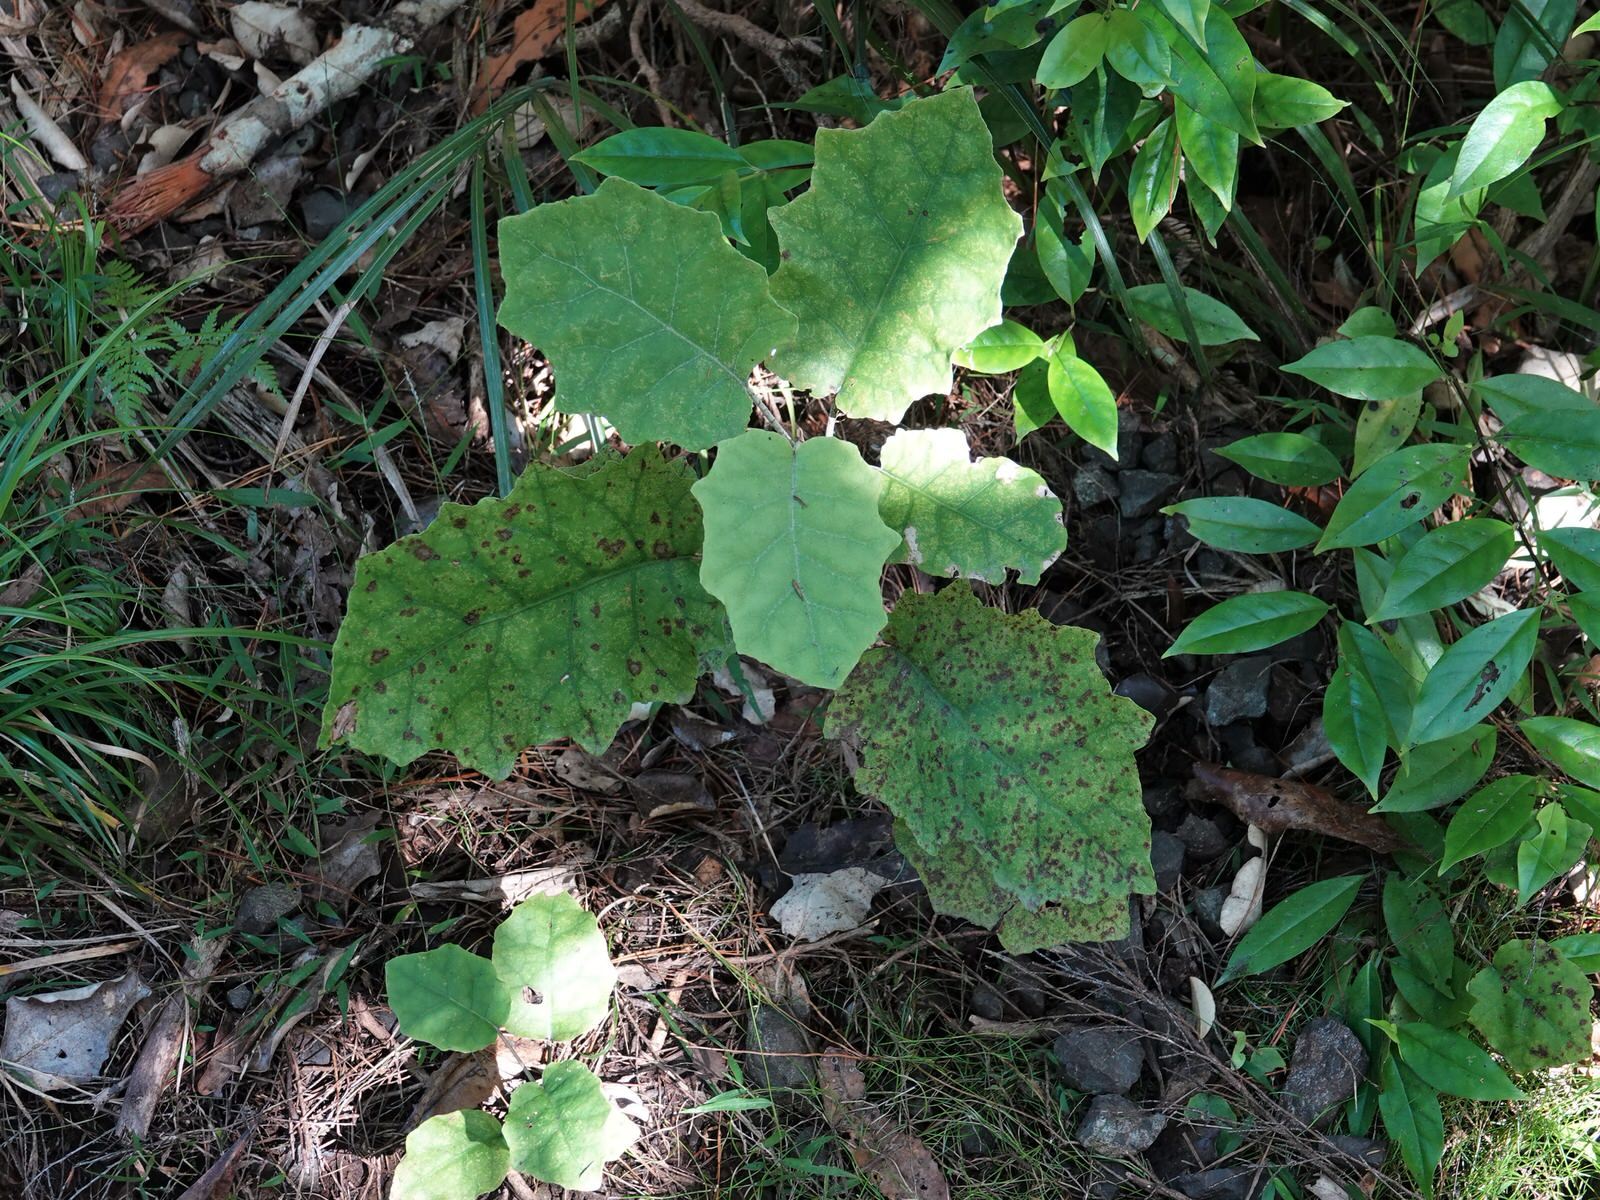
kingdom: Plantae
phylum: Tracheophyta
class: Magnoliopsida
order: Asterales
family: Asteraceae
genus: Brachyglottis
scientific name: Brachyglottis repanda
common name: Hedge ragwort
